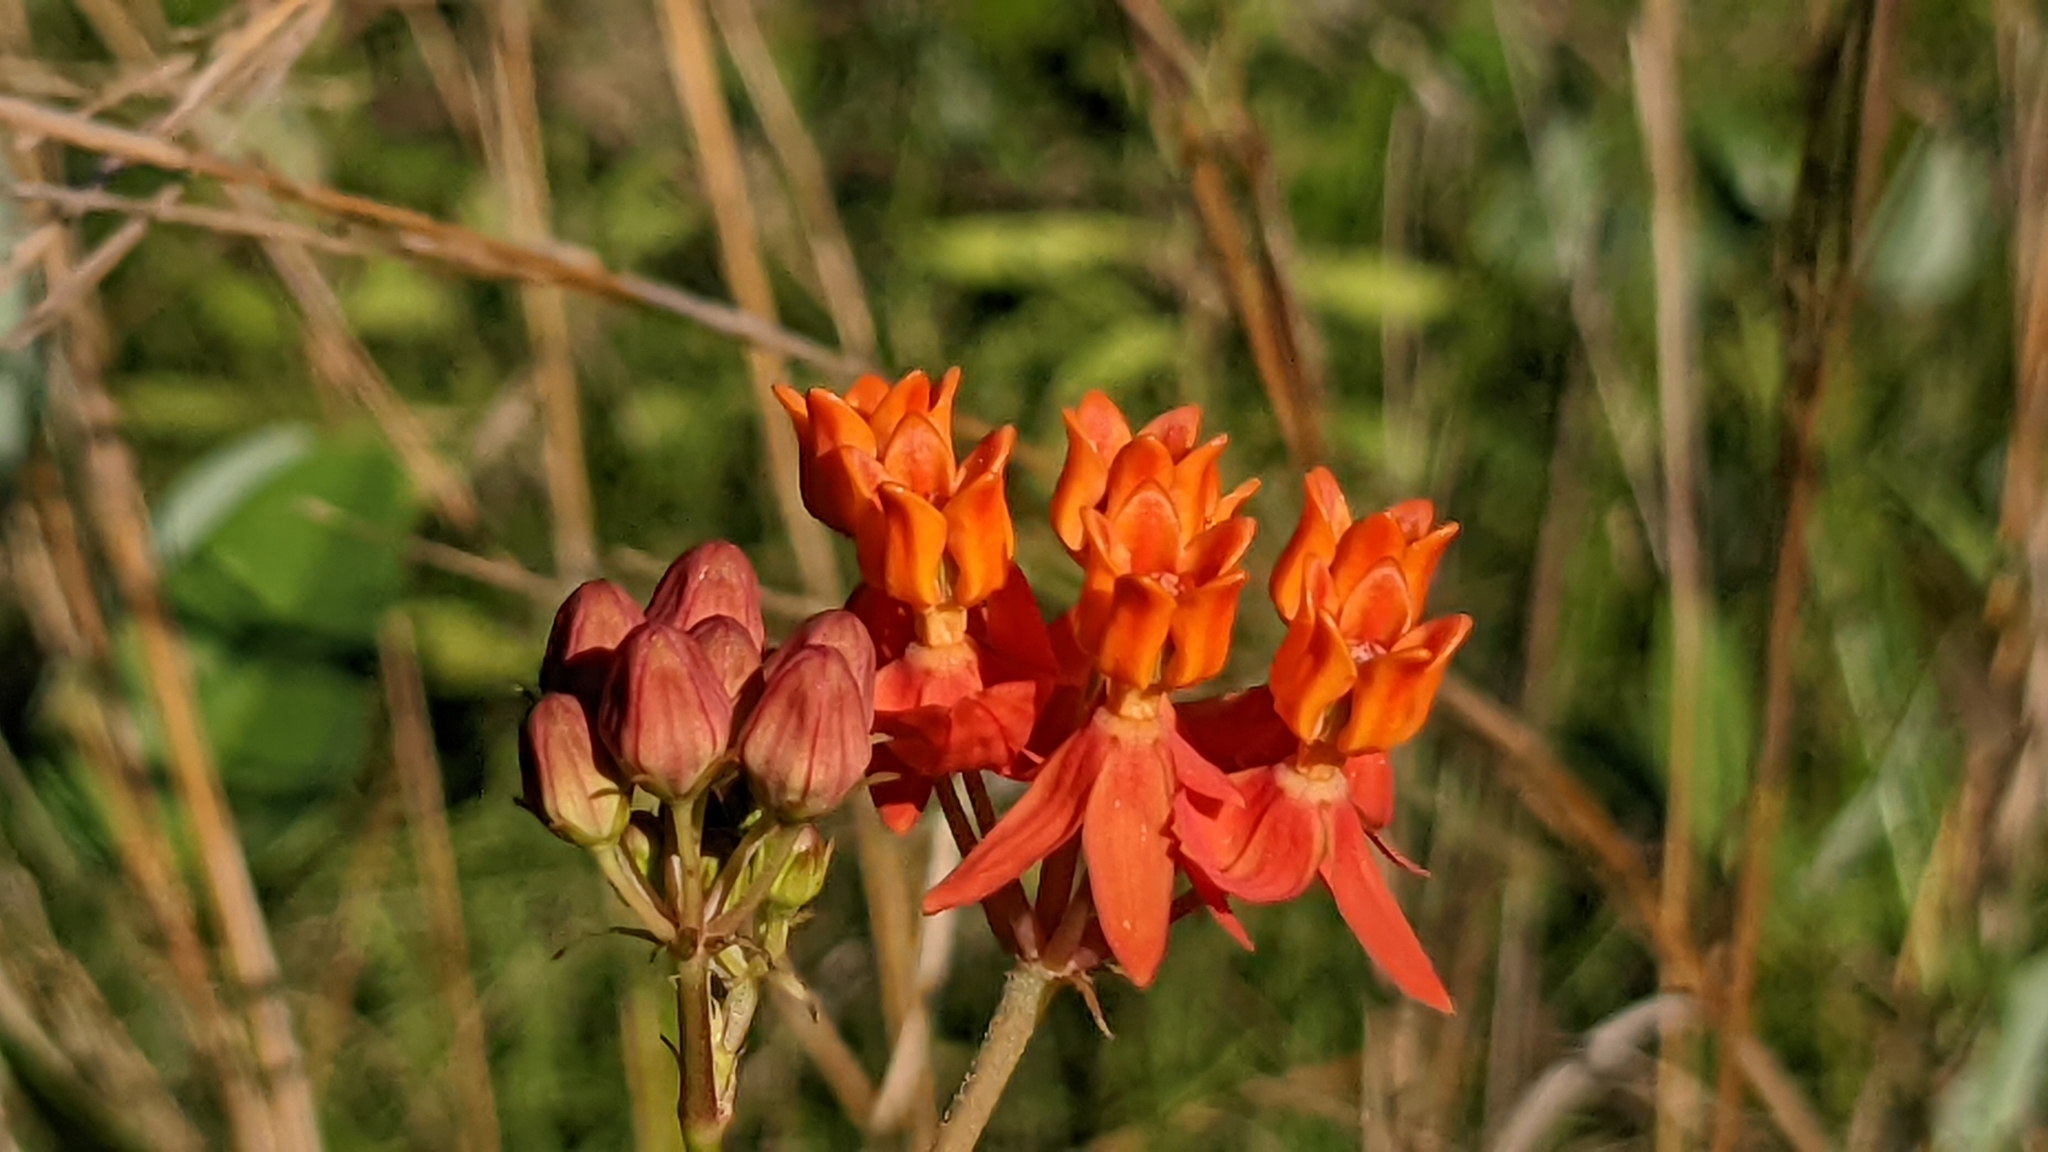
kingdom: Plantae
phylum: Tracheophyta
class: Magnoliopsida
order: Gentianales
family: Apocynaceae
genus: Asclepias
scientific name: Asclepias lanceolata
